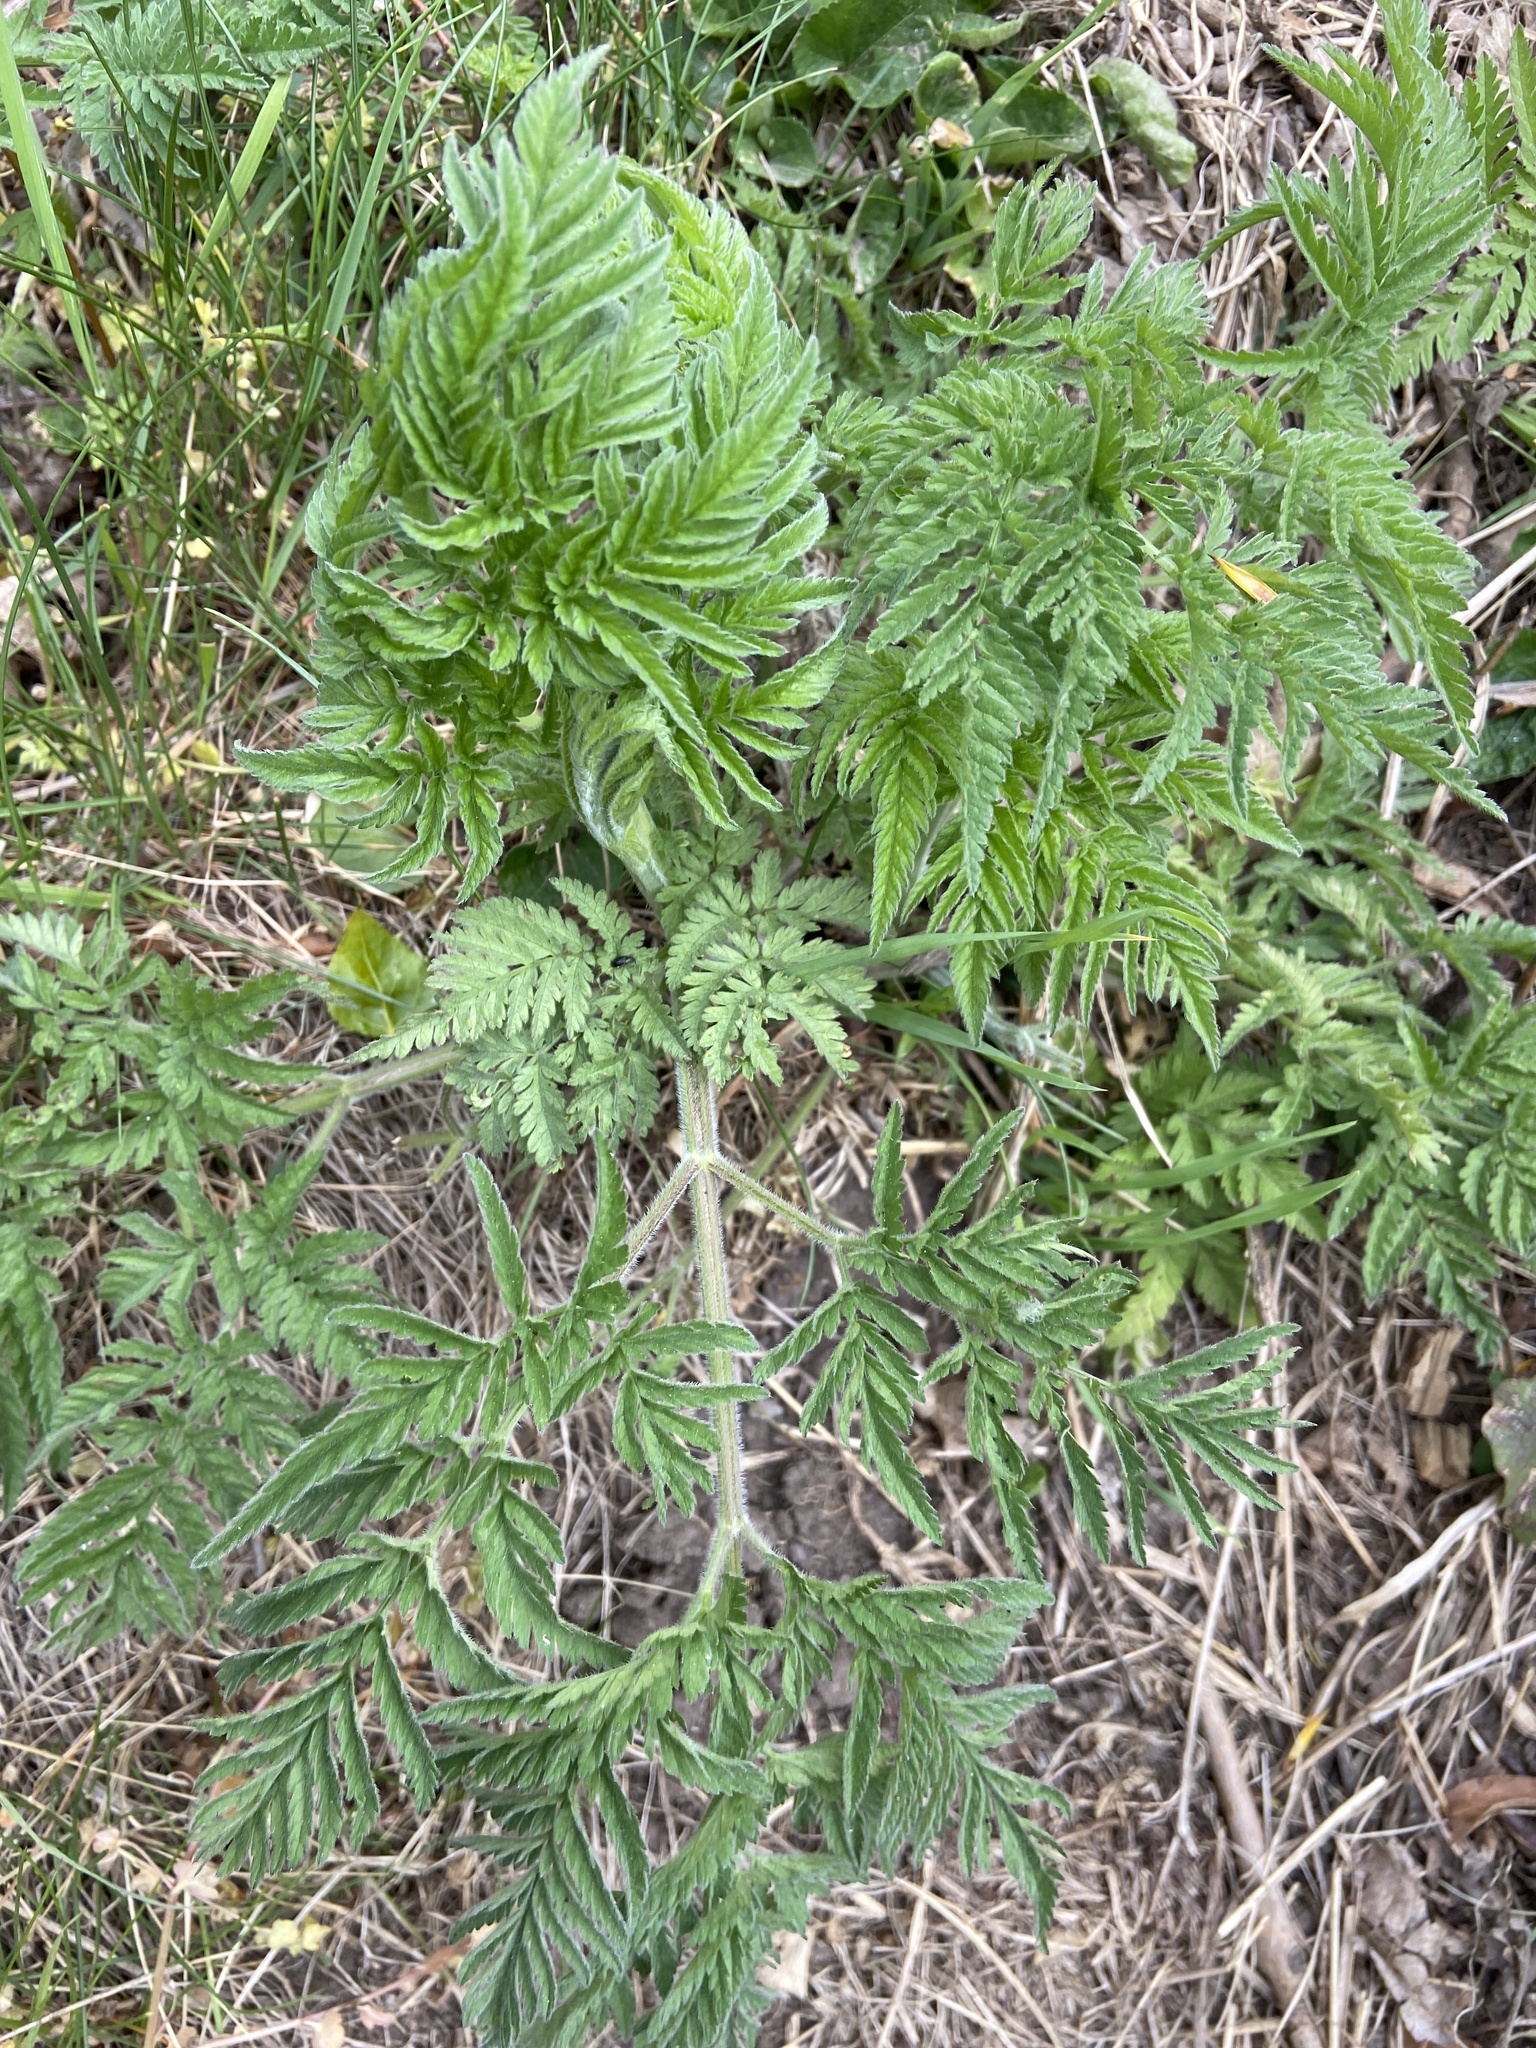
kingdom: Plantae
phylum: Tracheophyta
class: Magnoliopsida
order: Asterales
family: Asteraceae
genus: Tanacetum
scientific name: Tanacetum vulgare
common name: Common tansy
